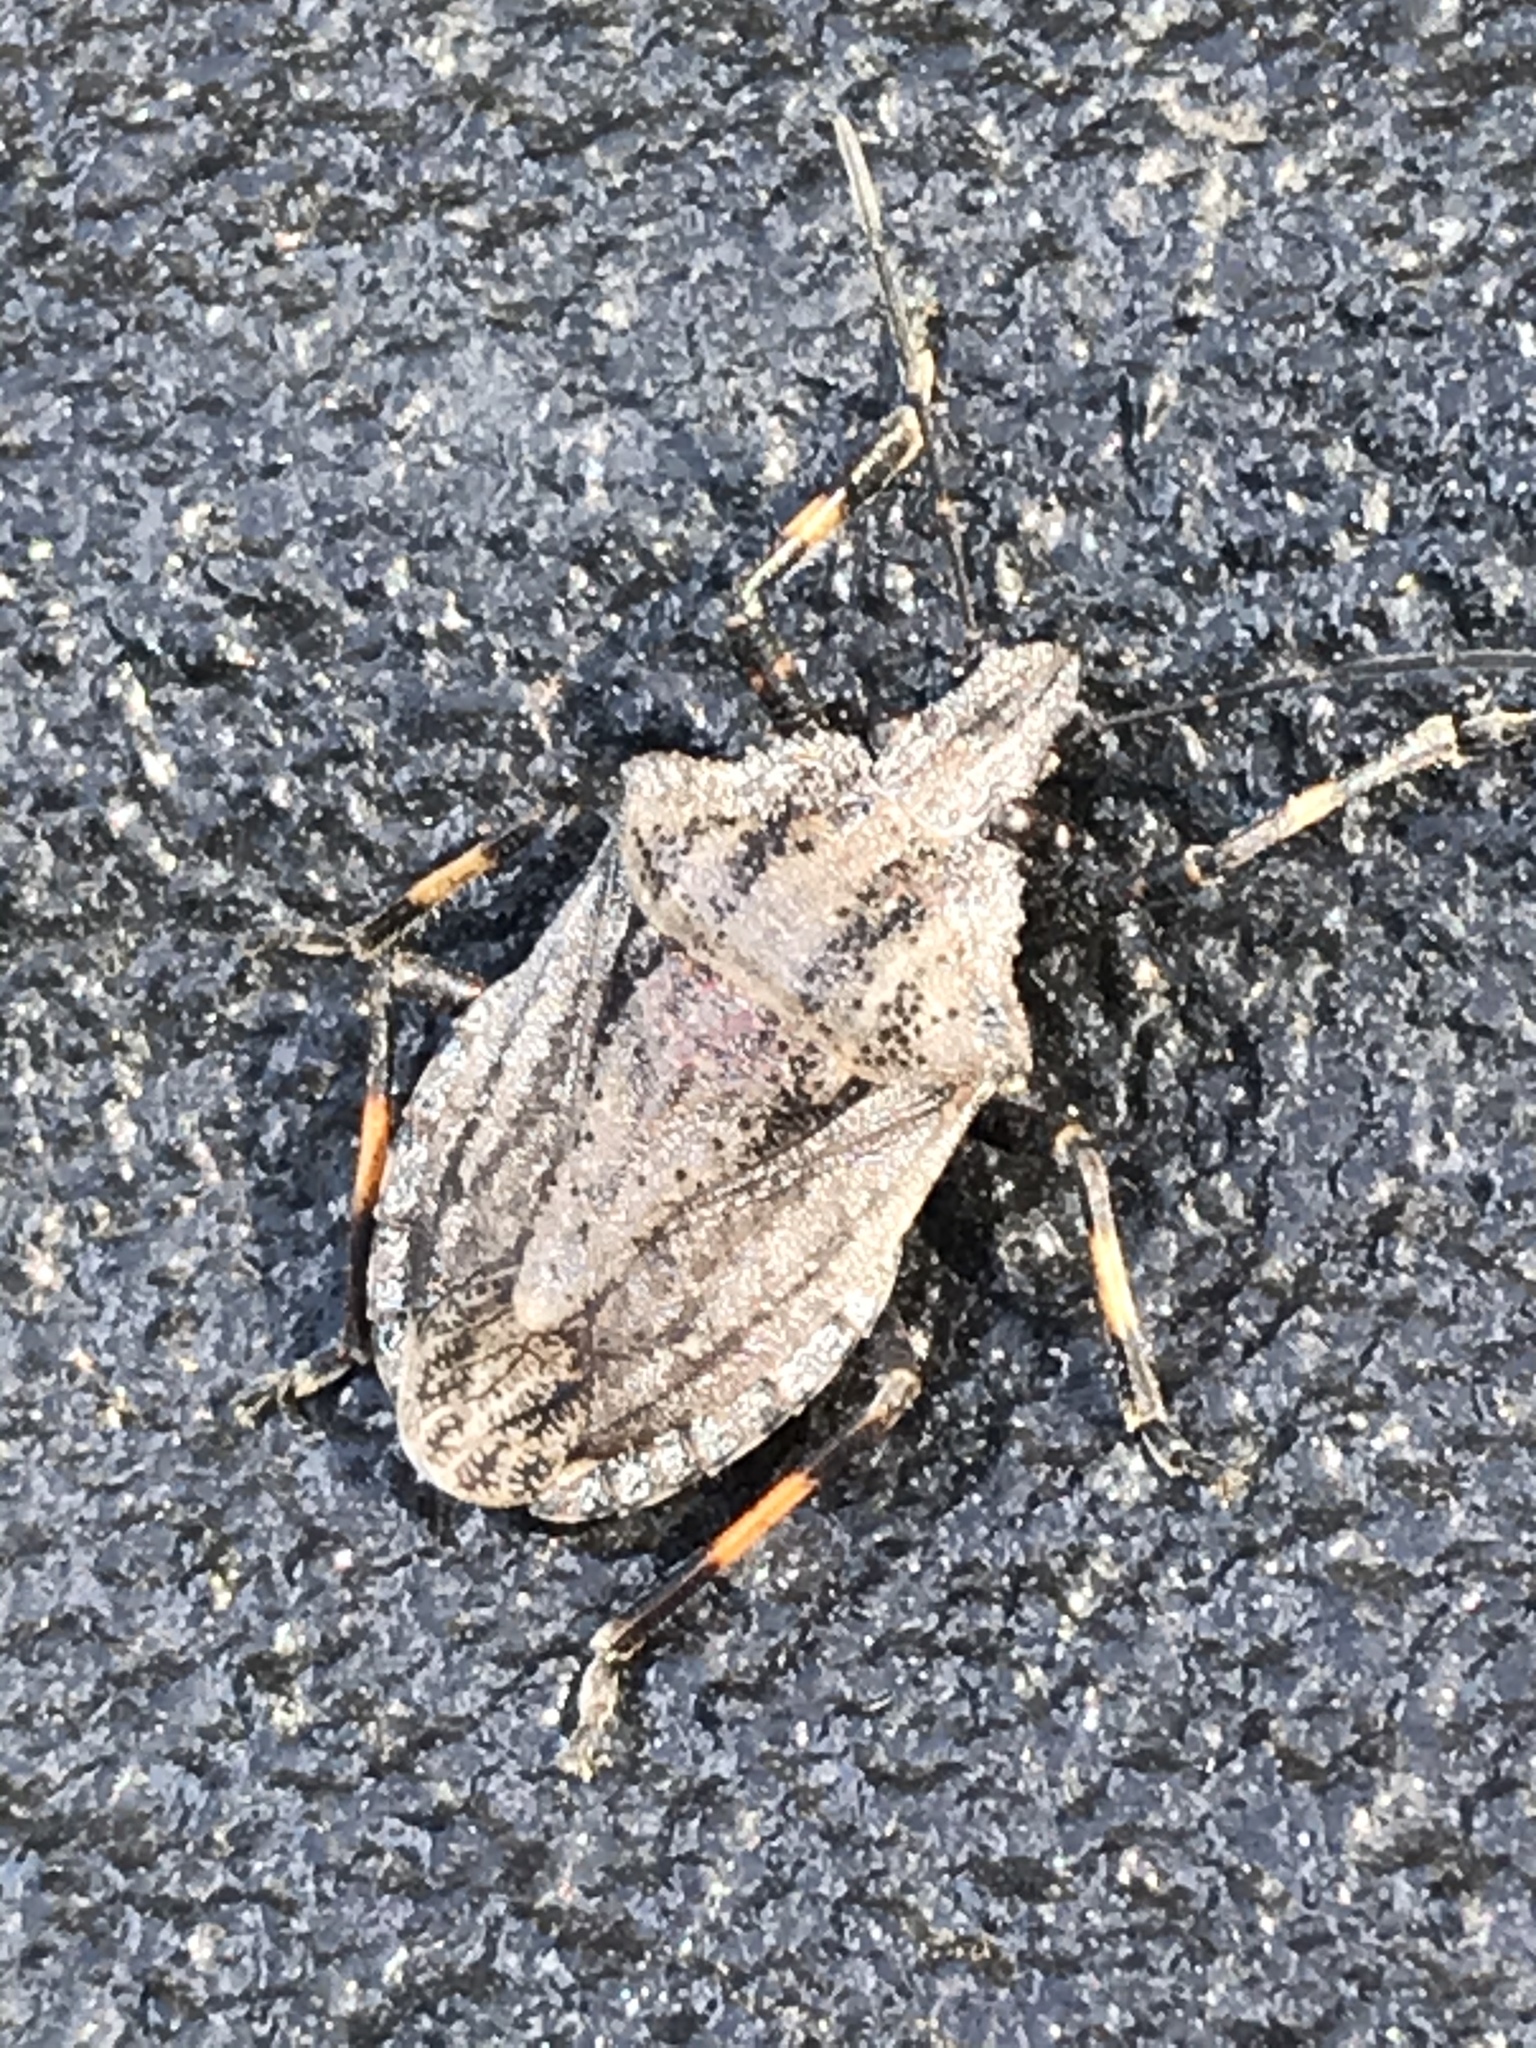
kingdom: Animalia
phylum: Arthropoda
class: Insecta
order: Hemiptera
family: Pentatomidae
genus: Brochymena
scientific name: Brochymena lineata
